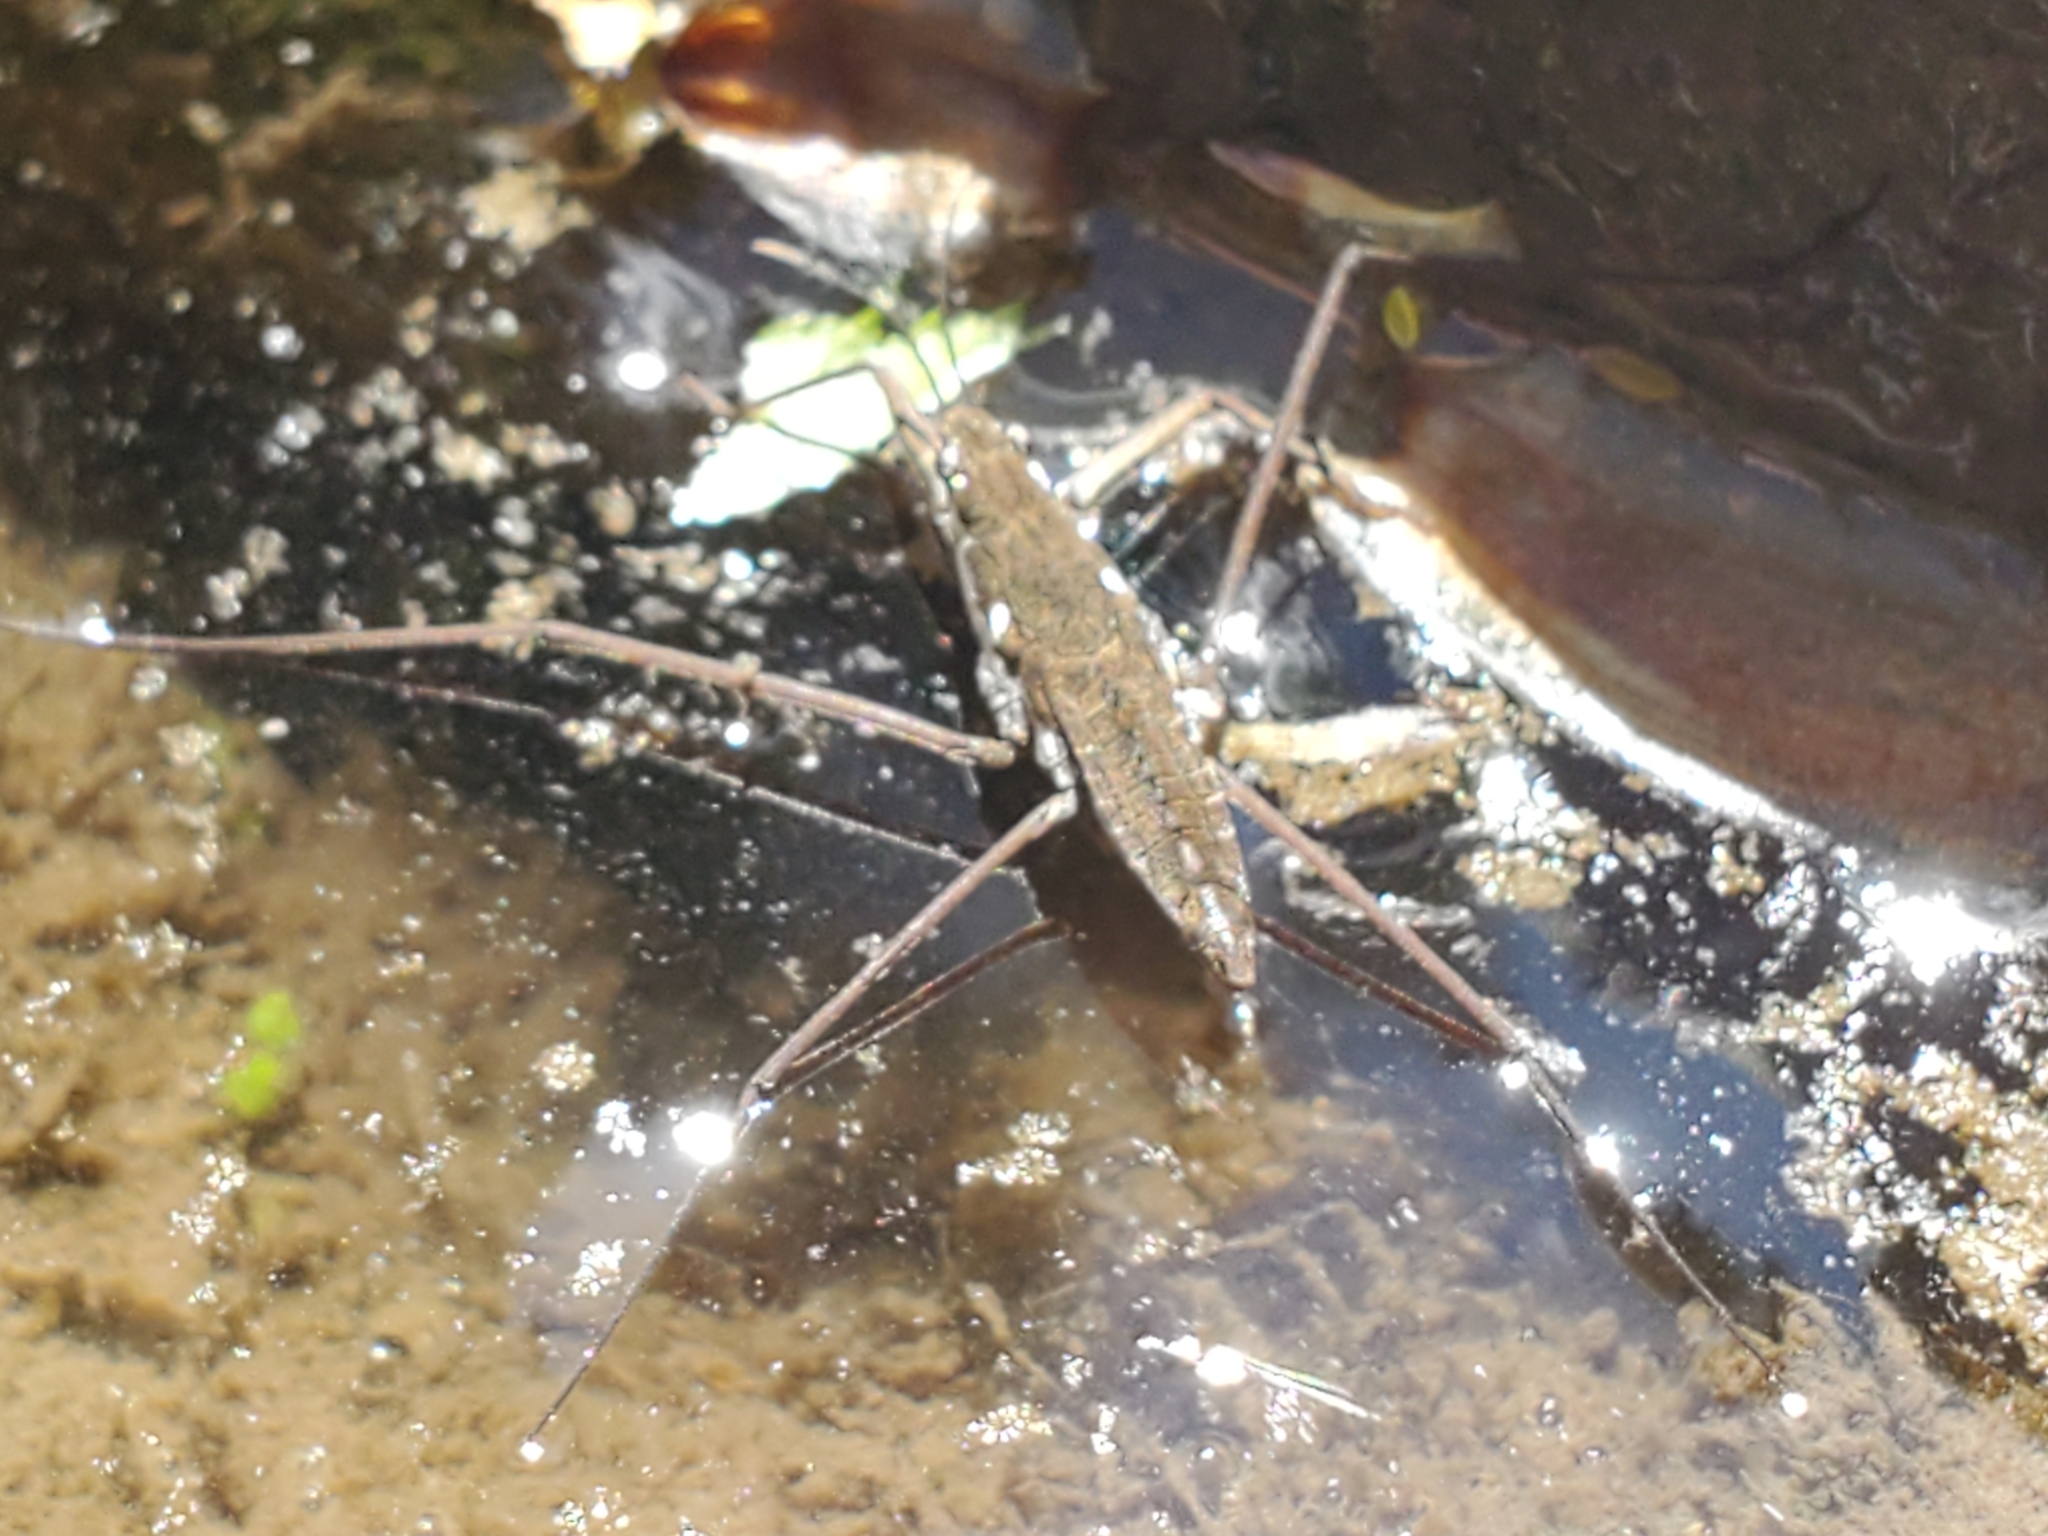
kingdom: Animalia
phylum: Arthropoda
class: Insecta
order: Hemiptera
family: Gerridae
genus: Aquarius
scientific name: Aquarius remigis
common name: Common water strider
